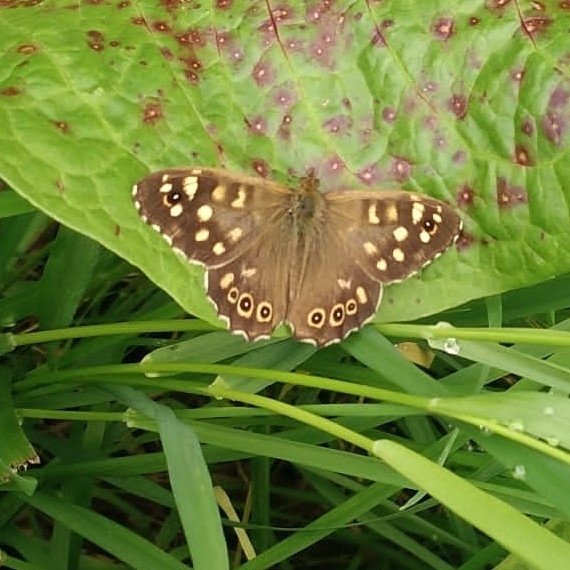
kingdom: Animalia
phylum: Arthropoda
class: Insecta
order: Lepidoptera
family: Nymphalidae
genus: Pararge
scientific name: Pararge aegeria
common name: Speckled wood
